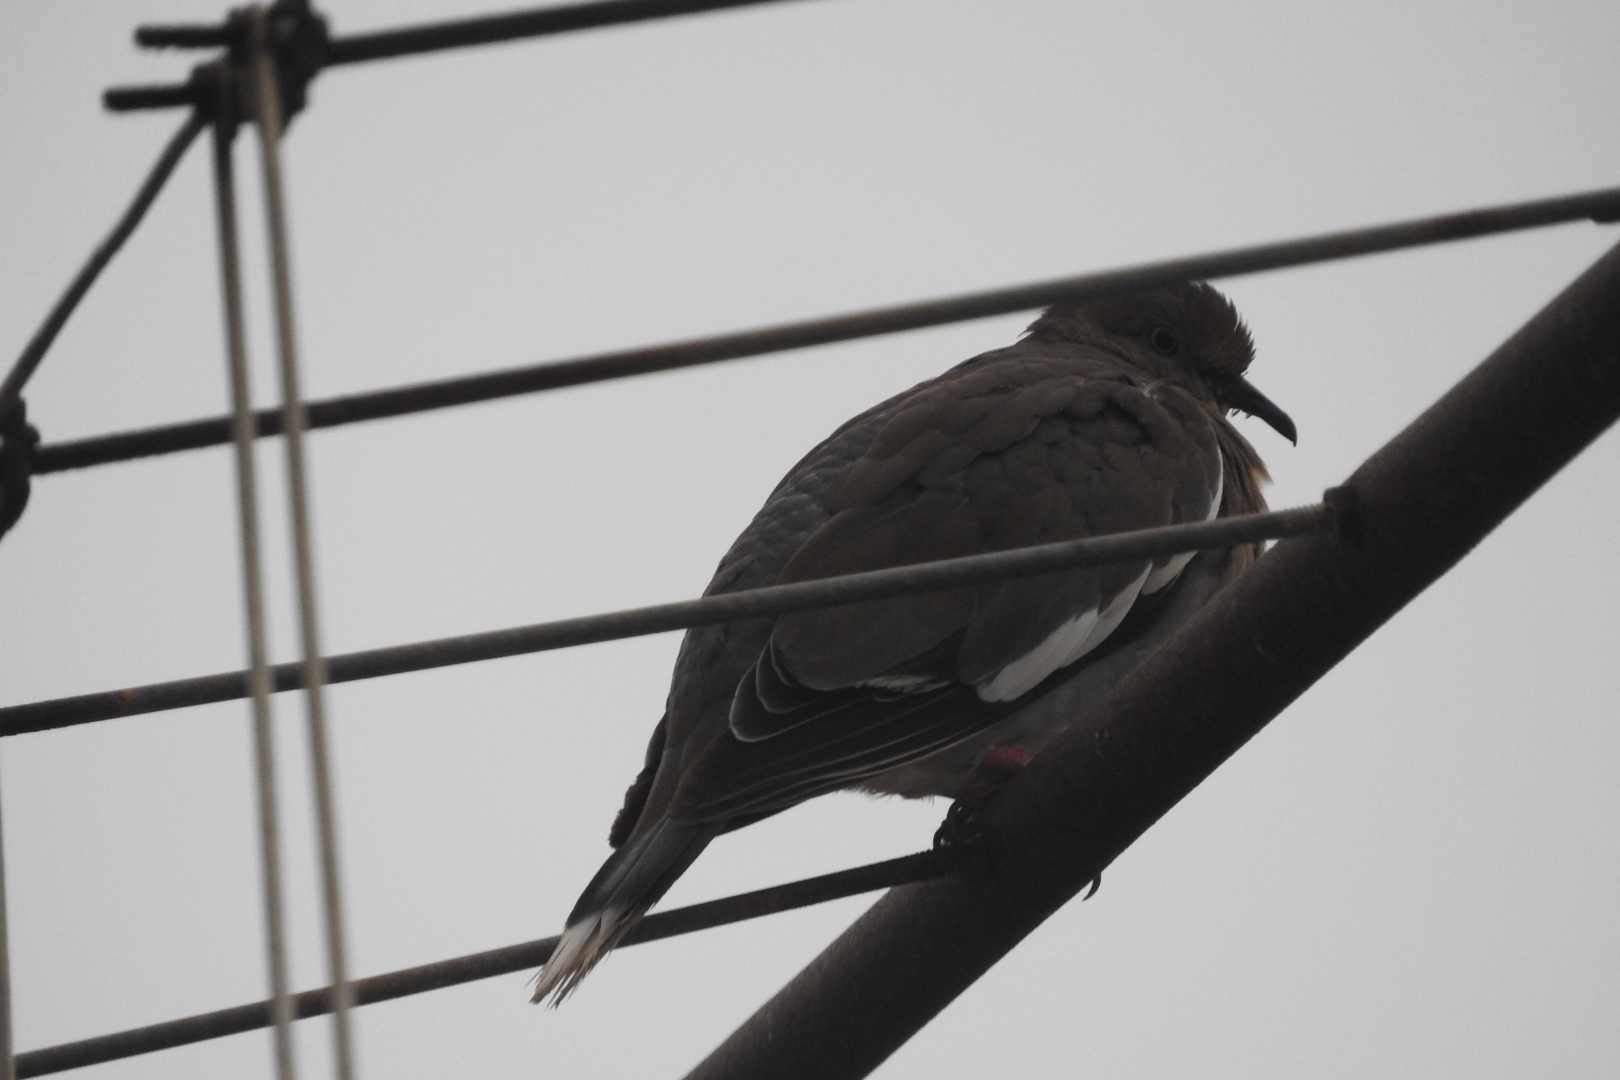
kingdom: Animalia
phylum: Chordata
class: Aves
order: Columbiformes
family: Columbidae
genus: Zenaida
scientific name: Zenaida asiatica
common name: White-winged dove
